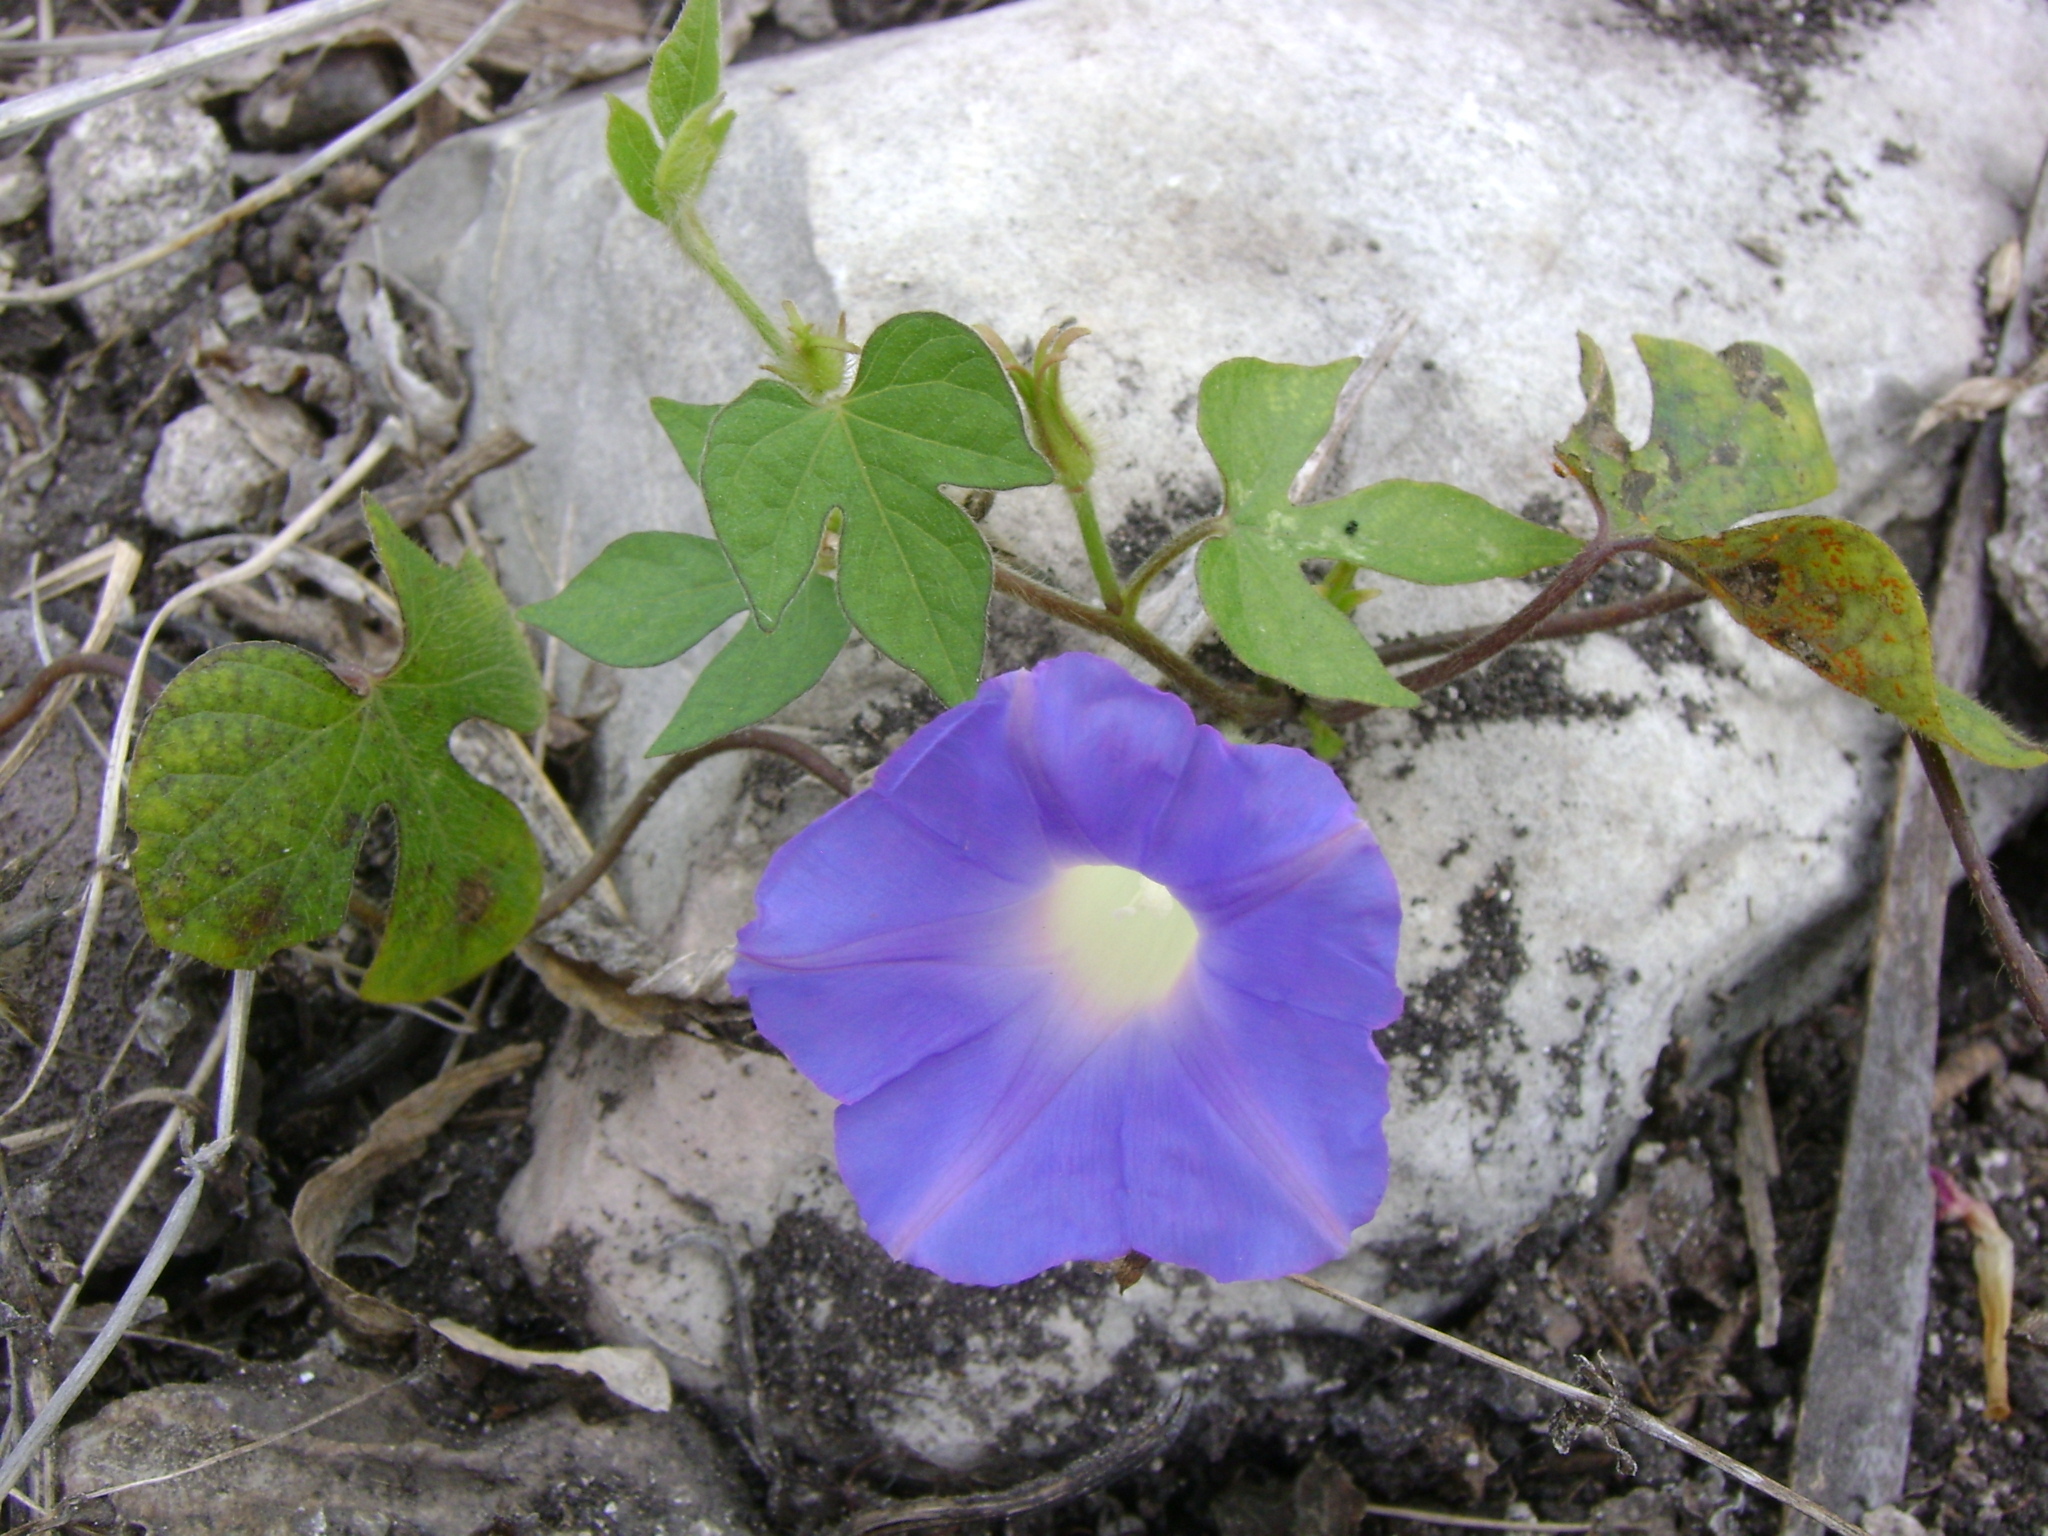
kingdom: Plantae
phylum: Tracheophyta
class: Magnoliopsida
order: Solanales
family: Convolvulaceae
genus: Ipomoea
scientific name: Ipomoea hederacea
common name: Ivy-leaved morning-glory
